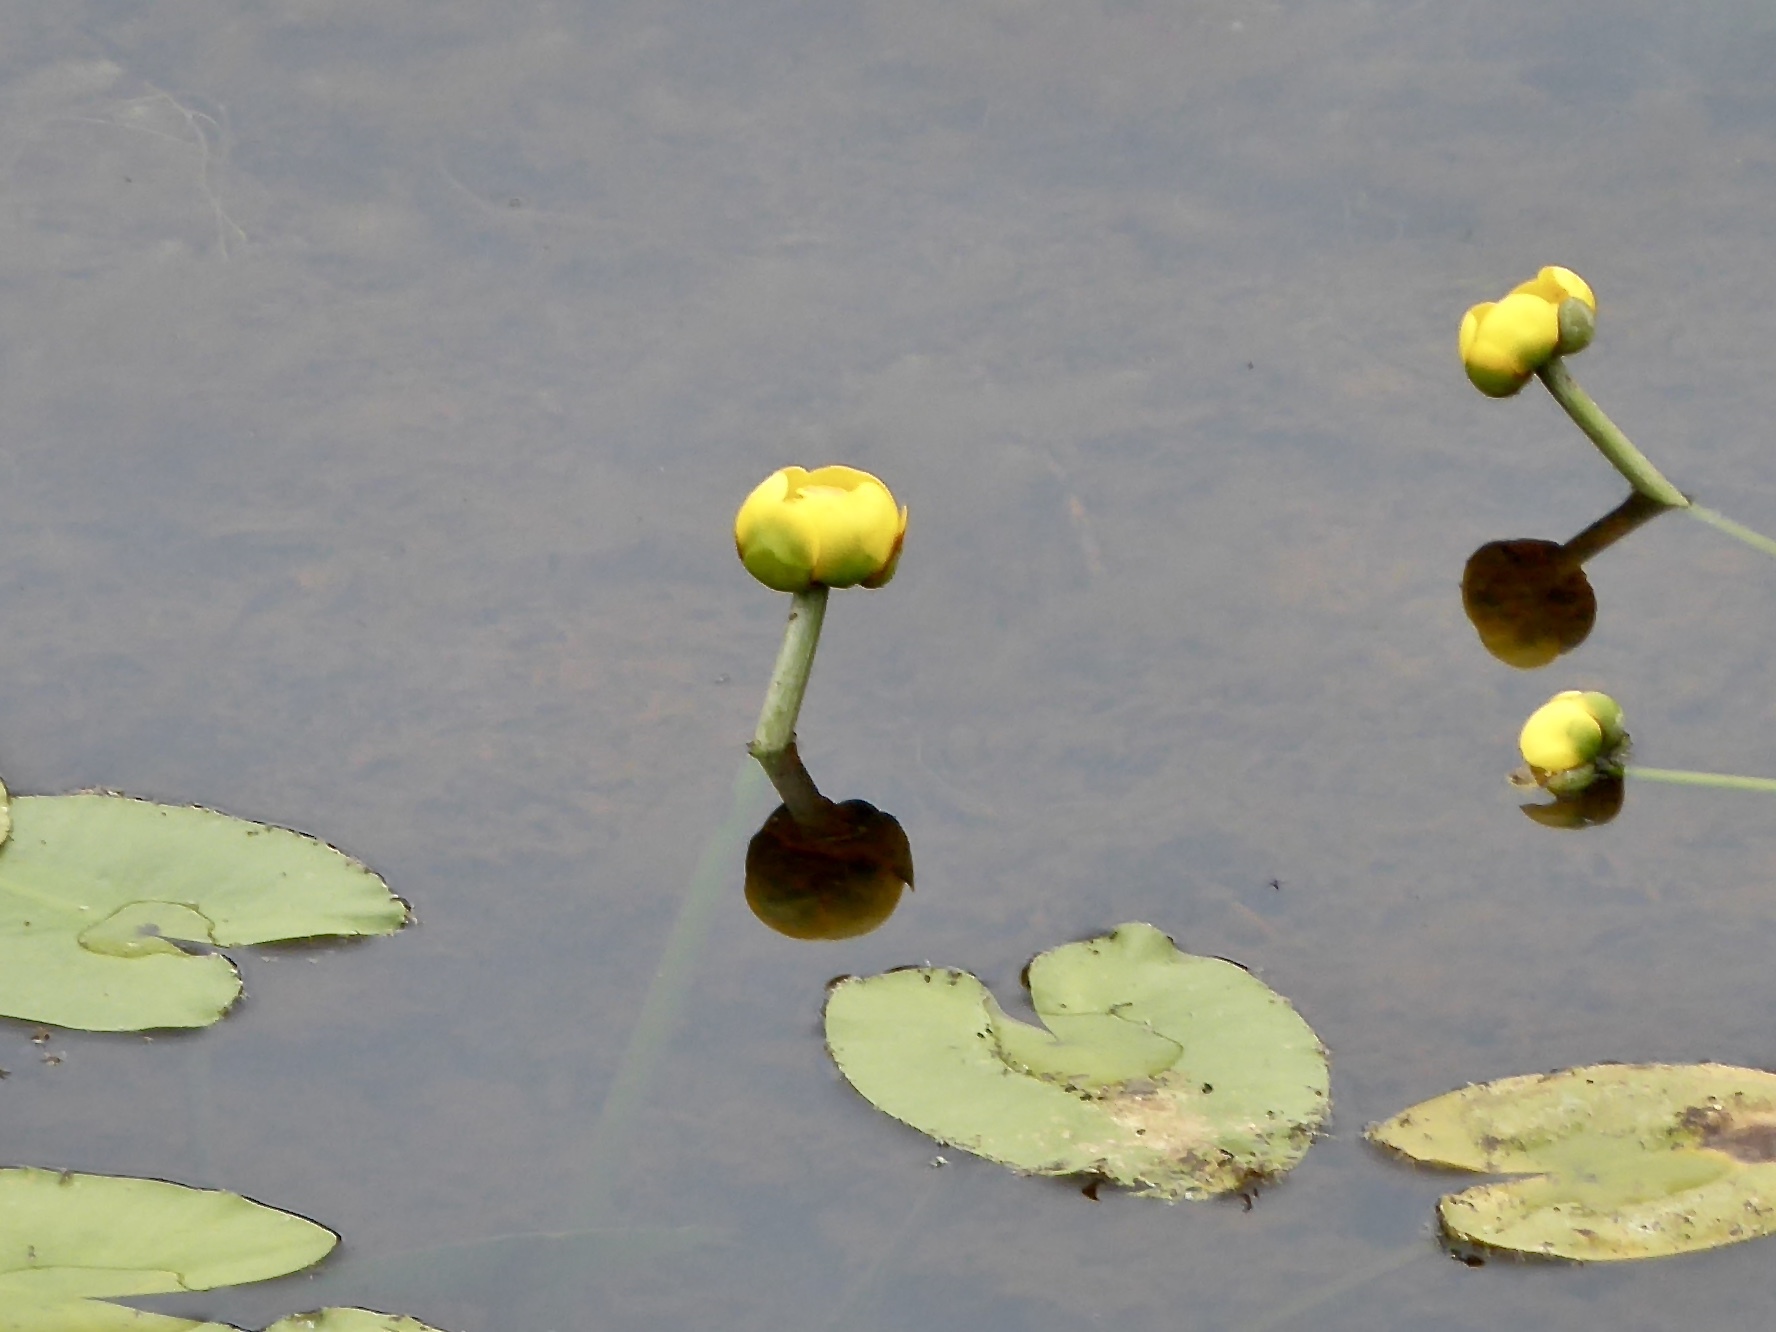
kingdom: Plantae
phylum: Tracheophyta
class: Magnoliopsida
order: Nymphaeales
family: Nymphaeaceae
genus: Nuphar
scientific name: Nuphar polysepala
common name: Rocky mountain cow-lily
